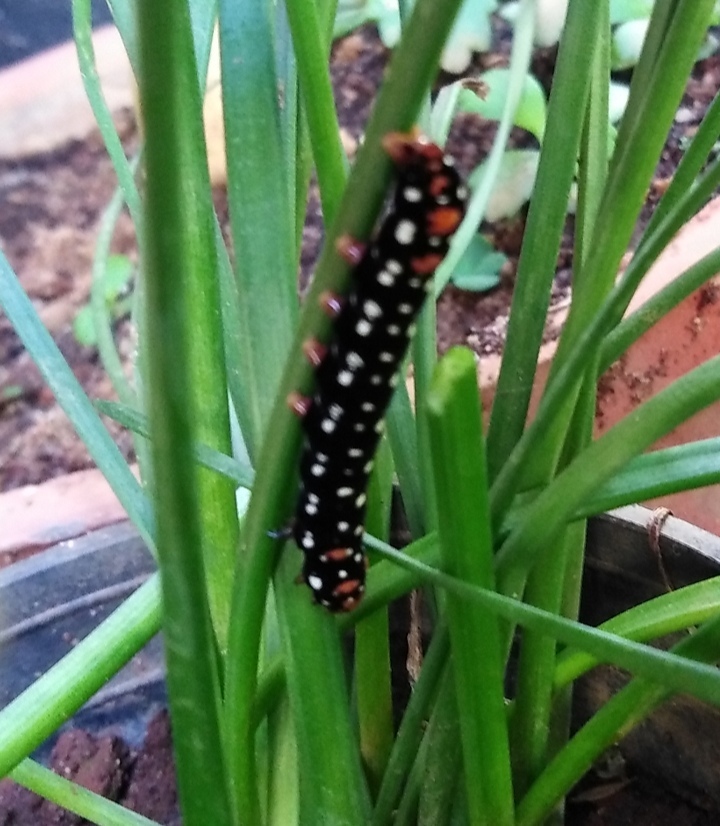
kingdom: Animalia
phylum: Arthropoda
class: Insecta
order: Lepidoptera
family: Noctuidae
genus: Polytela
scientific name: Polytela gloriosae
